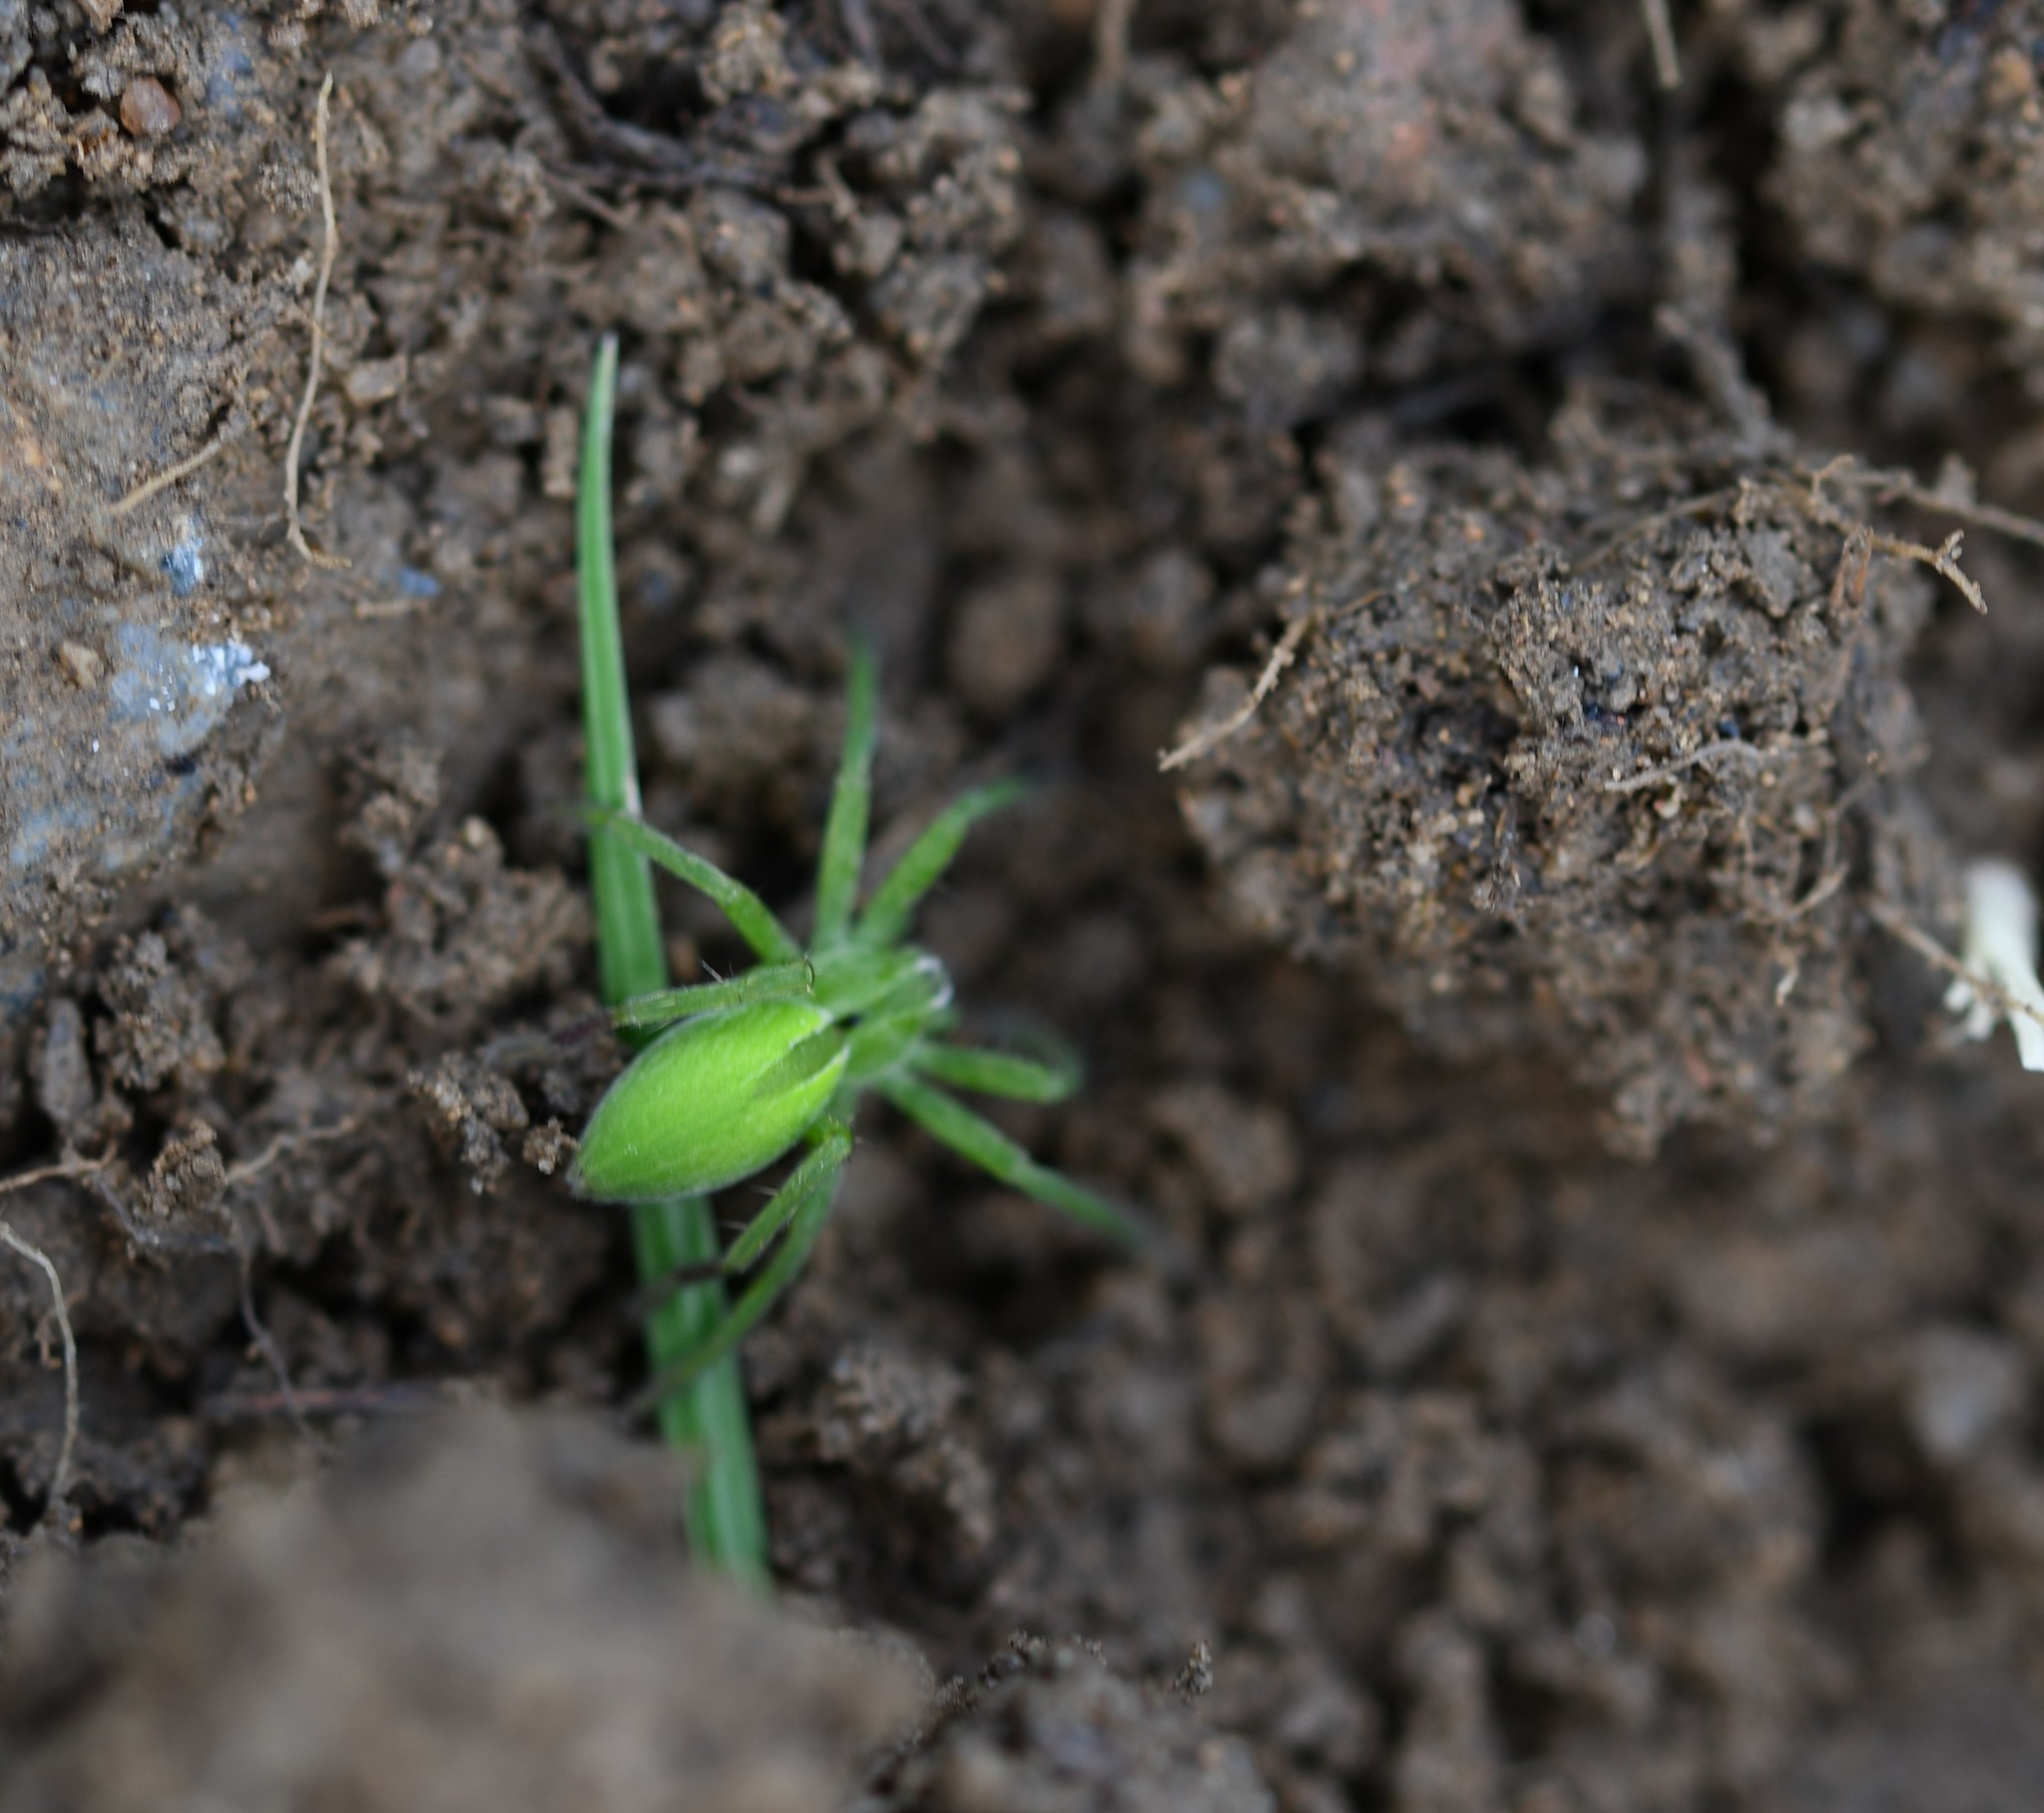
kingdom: Animalia
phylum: Arthropoda
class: Arachnida
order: Araneae
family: Sparassidae
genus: Micrommata
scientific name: Micrommata ligurina
